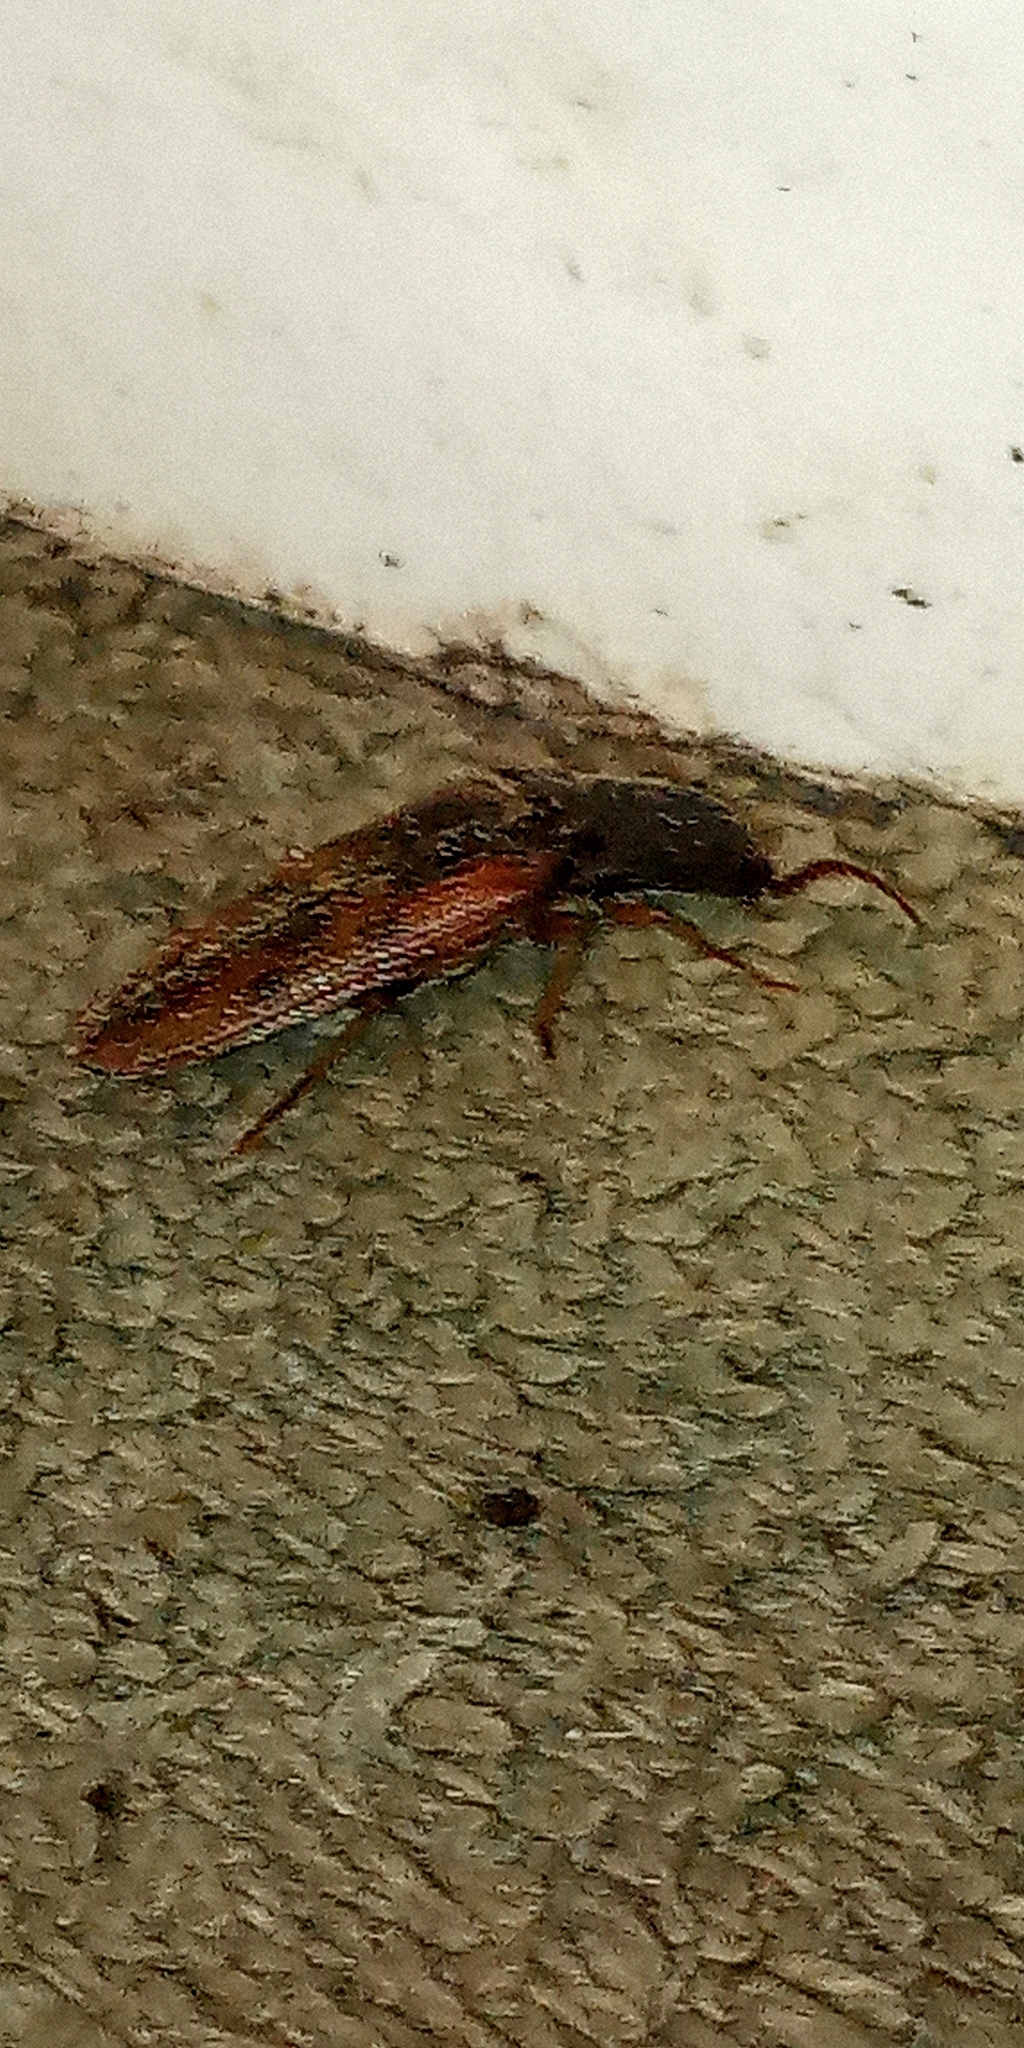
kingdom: Animalia
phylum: Arthropoda
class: Insecta
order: Coleoptera
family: Elateridae
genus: Monocrepidius
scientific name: Monocrepidius
